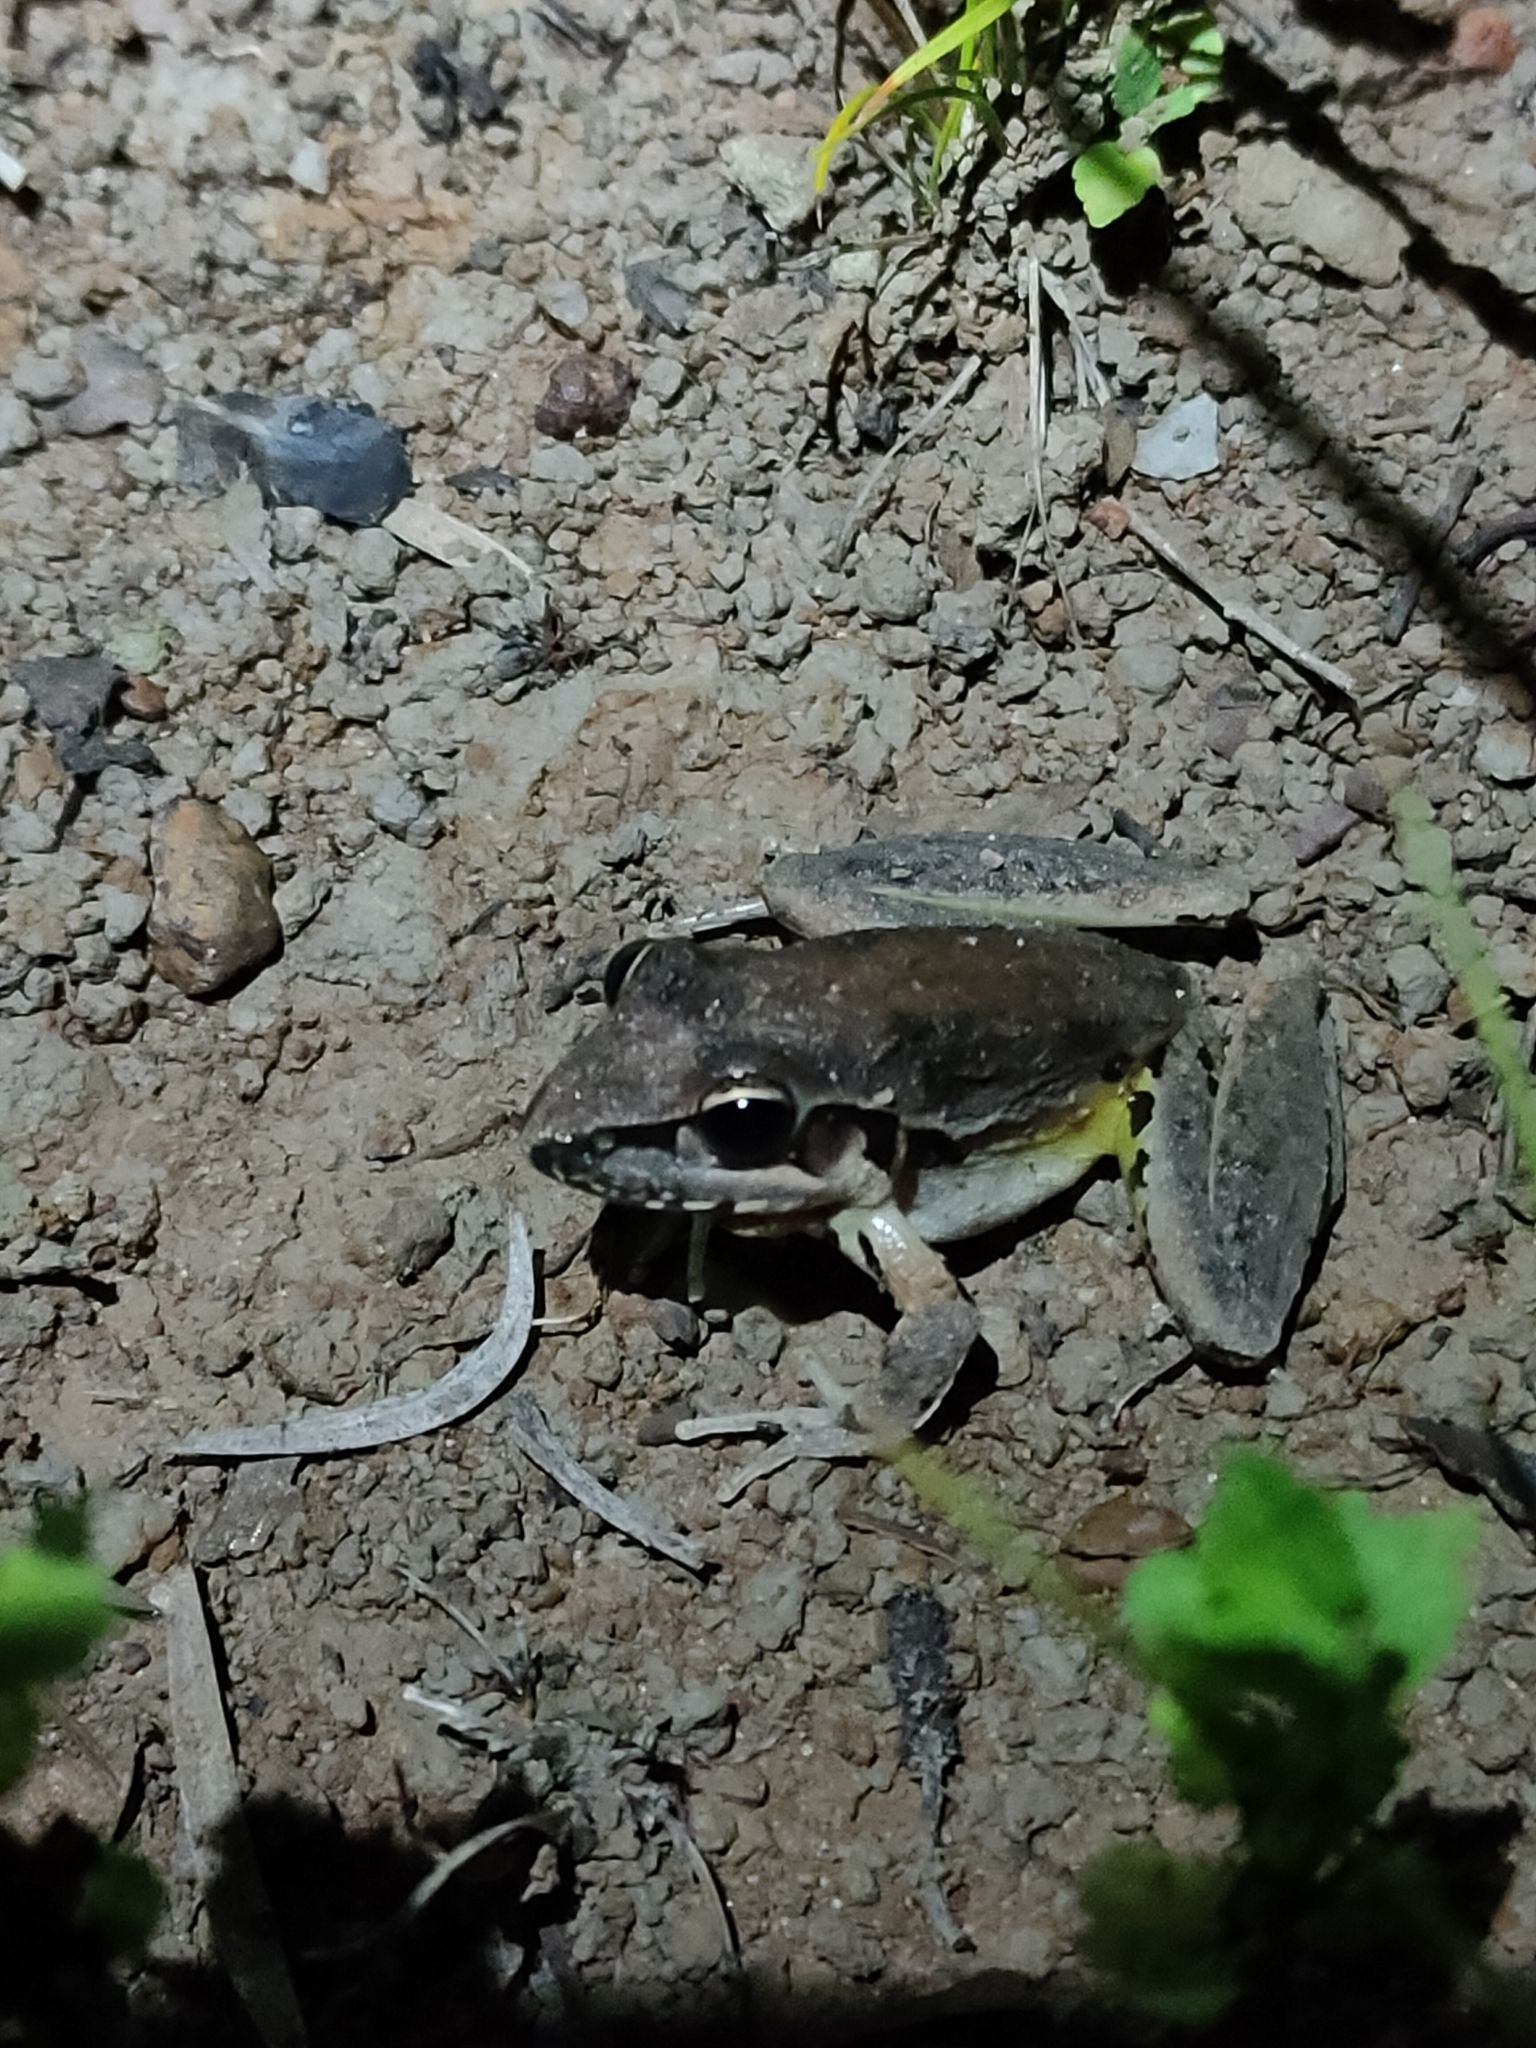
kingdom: Animalia
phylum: Chordata
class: Amphibia
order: Anura
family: Pelodryadidae
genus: Litoria
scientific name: Litoria latopalmata
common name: Broad-palmed rocket frog
